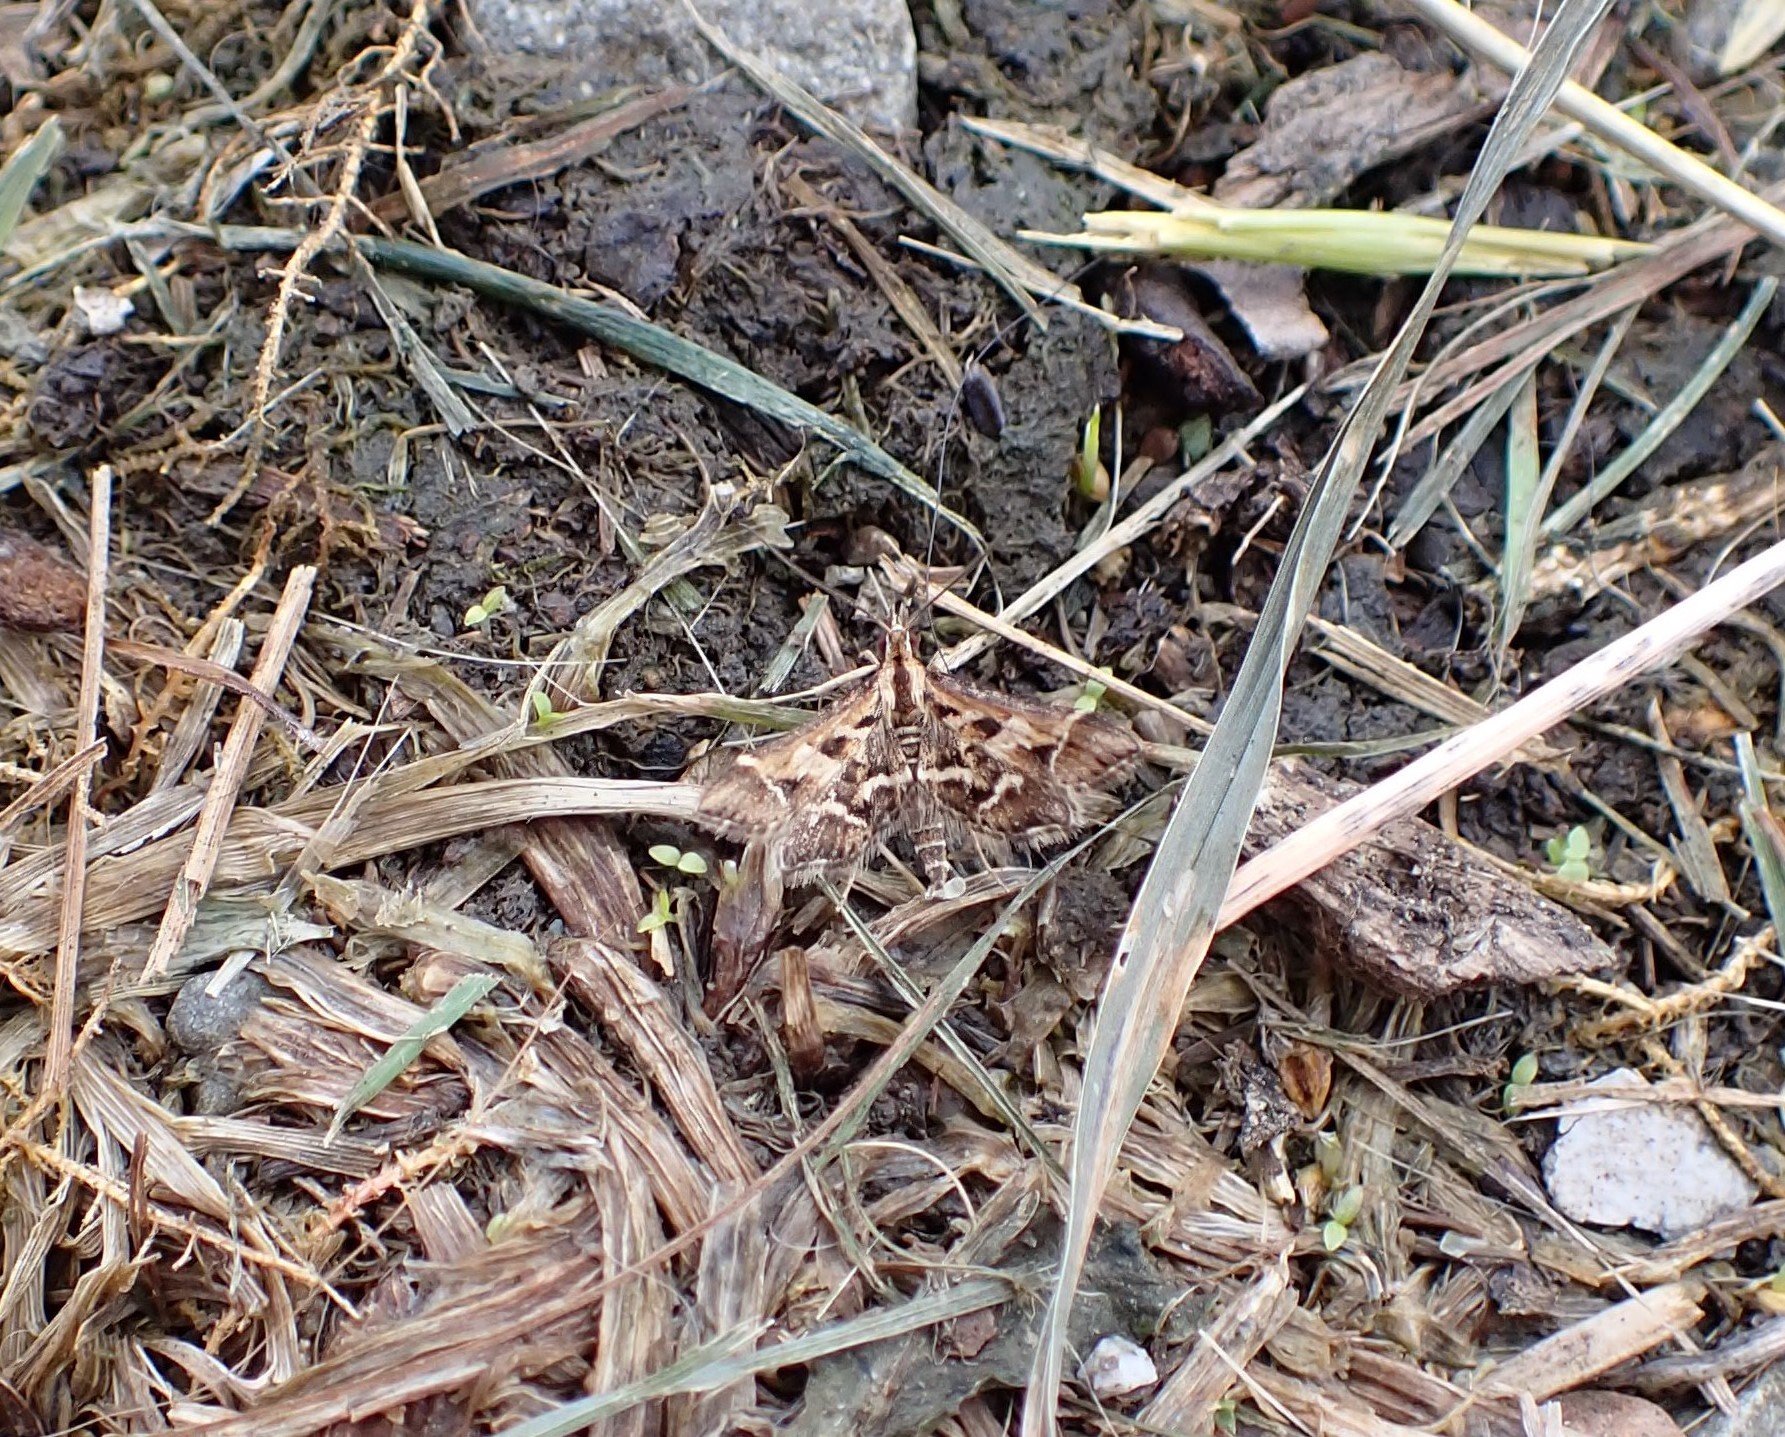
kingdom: Animalia
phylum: Arthropoda
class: Insecta
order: Lepidoptera
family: Crambidae
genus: Diasemia
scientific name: Diasemia grammalis
